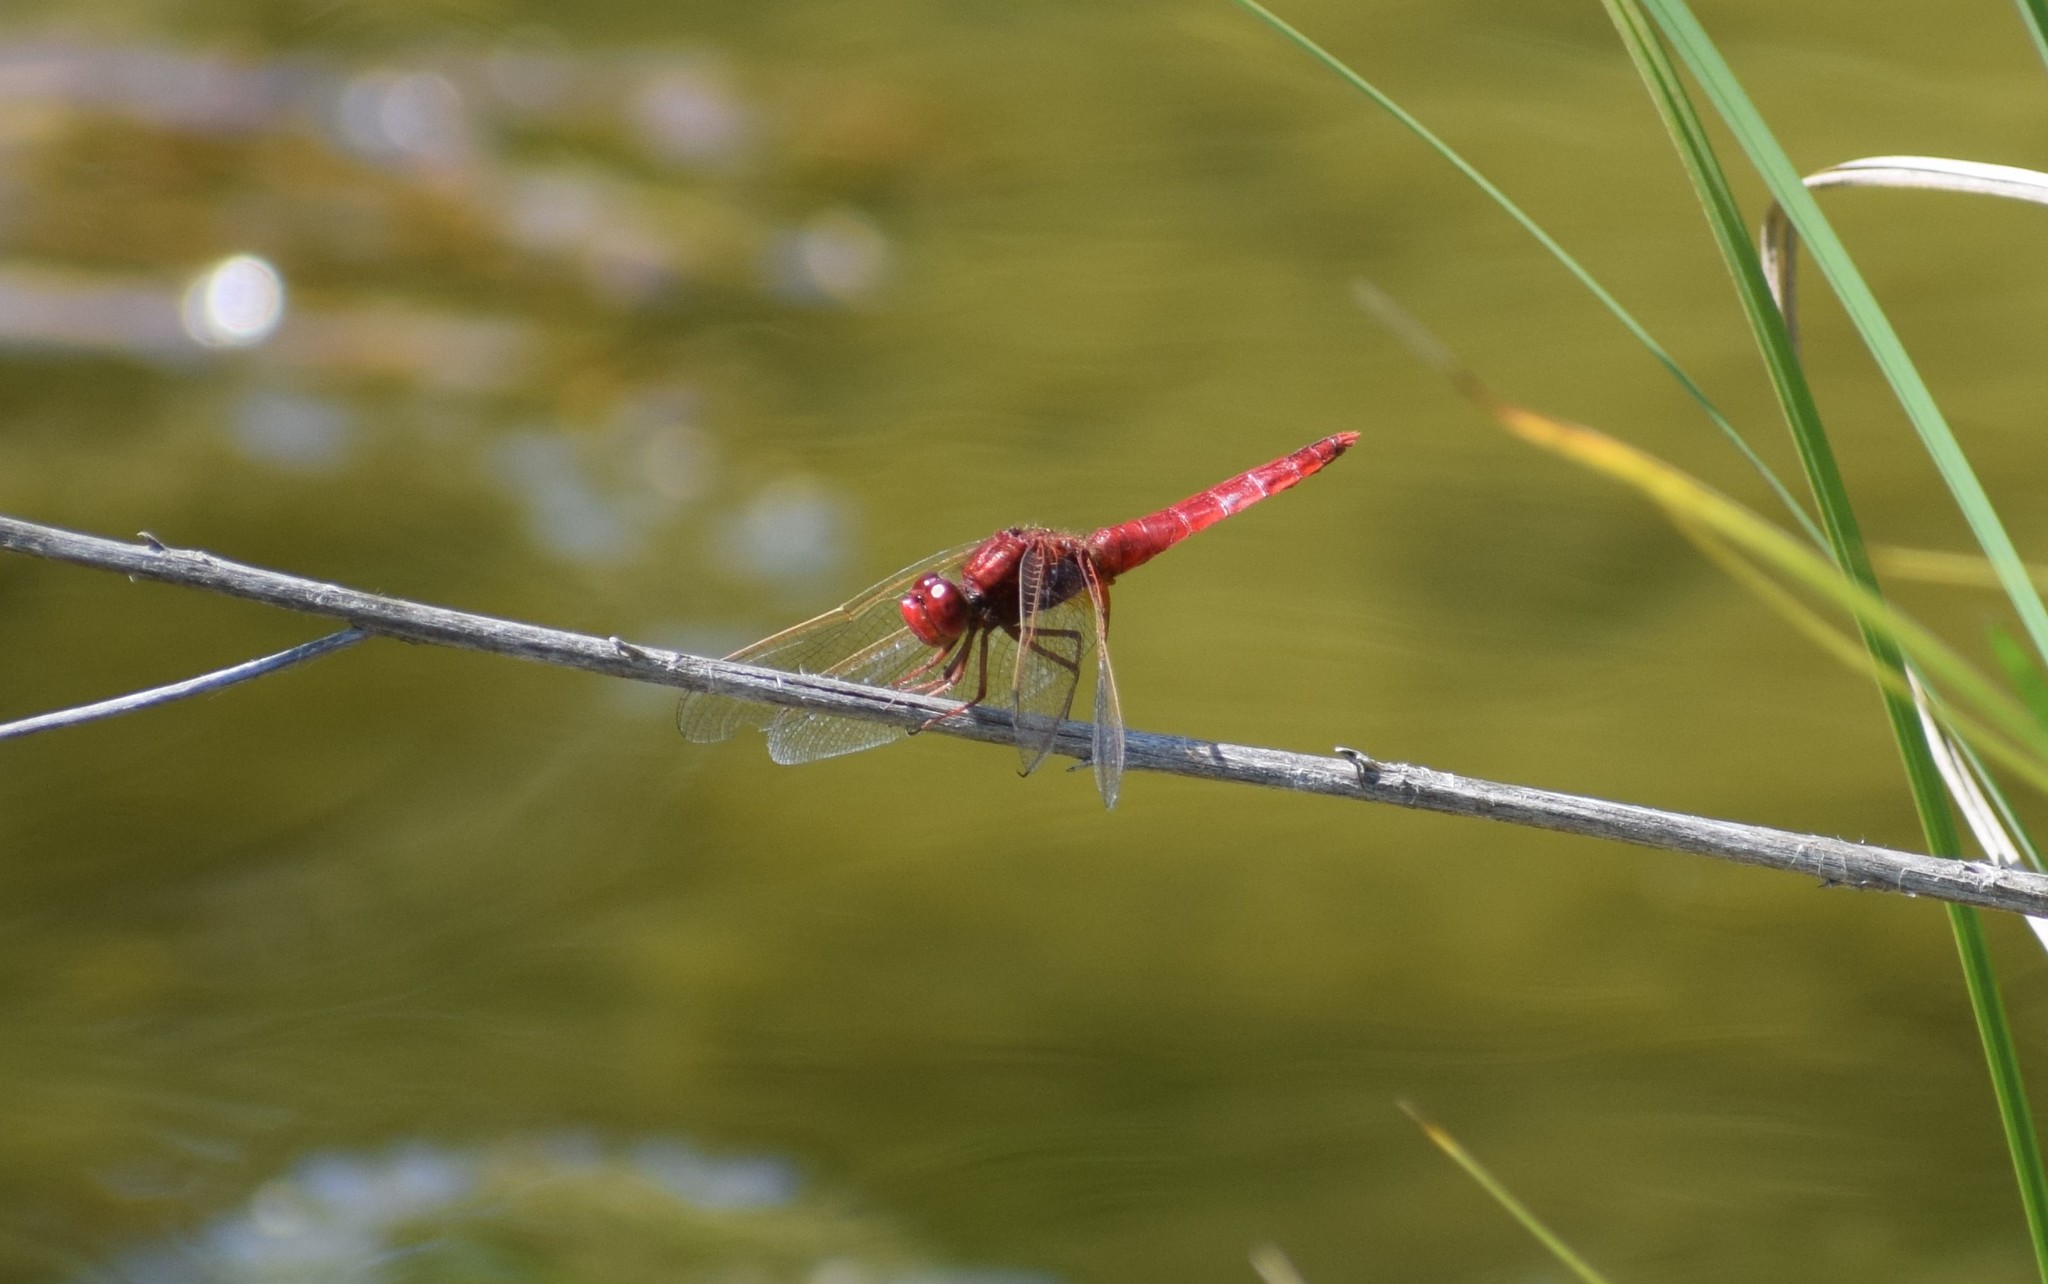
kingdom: Animalia
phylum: Arthropoda
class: Insecta
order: Odonata
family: Libellulidae
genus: Crocothemis
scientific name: Crocothemis erythraea
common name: Scarlet dragonfly
